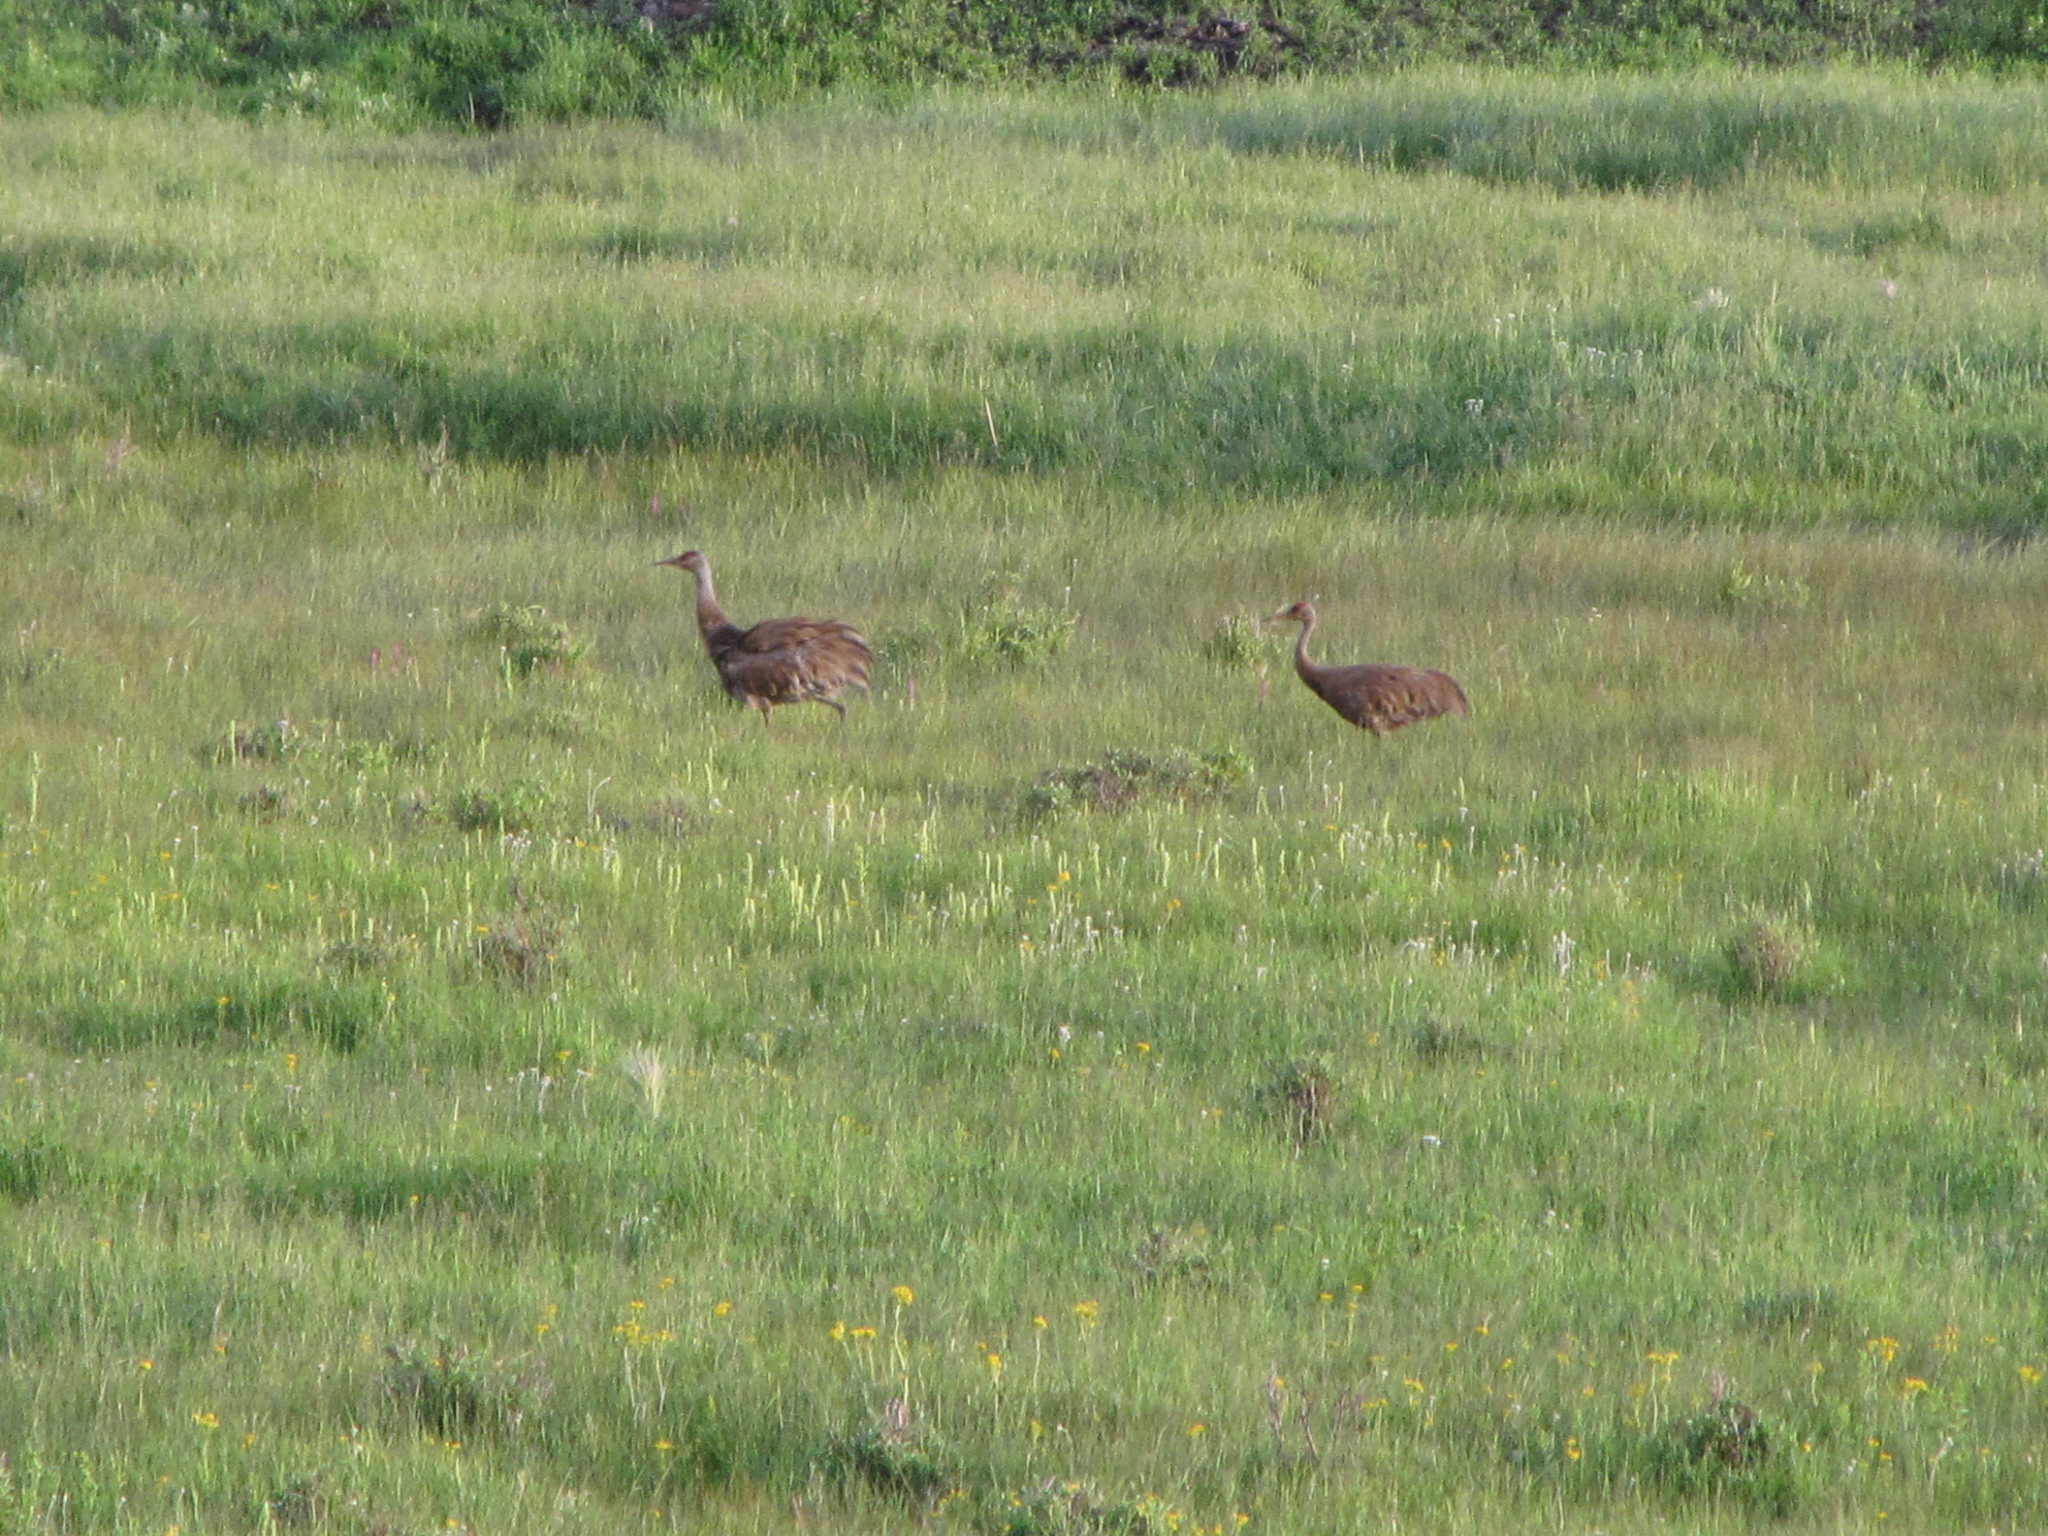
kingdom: Animalia
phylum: Chordata
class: Aves
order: Gruiformes
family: Gruidae
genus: Grus
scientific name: Grus canadensis
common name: Sandhill crane
